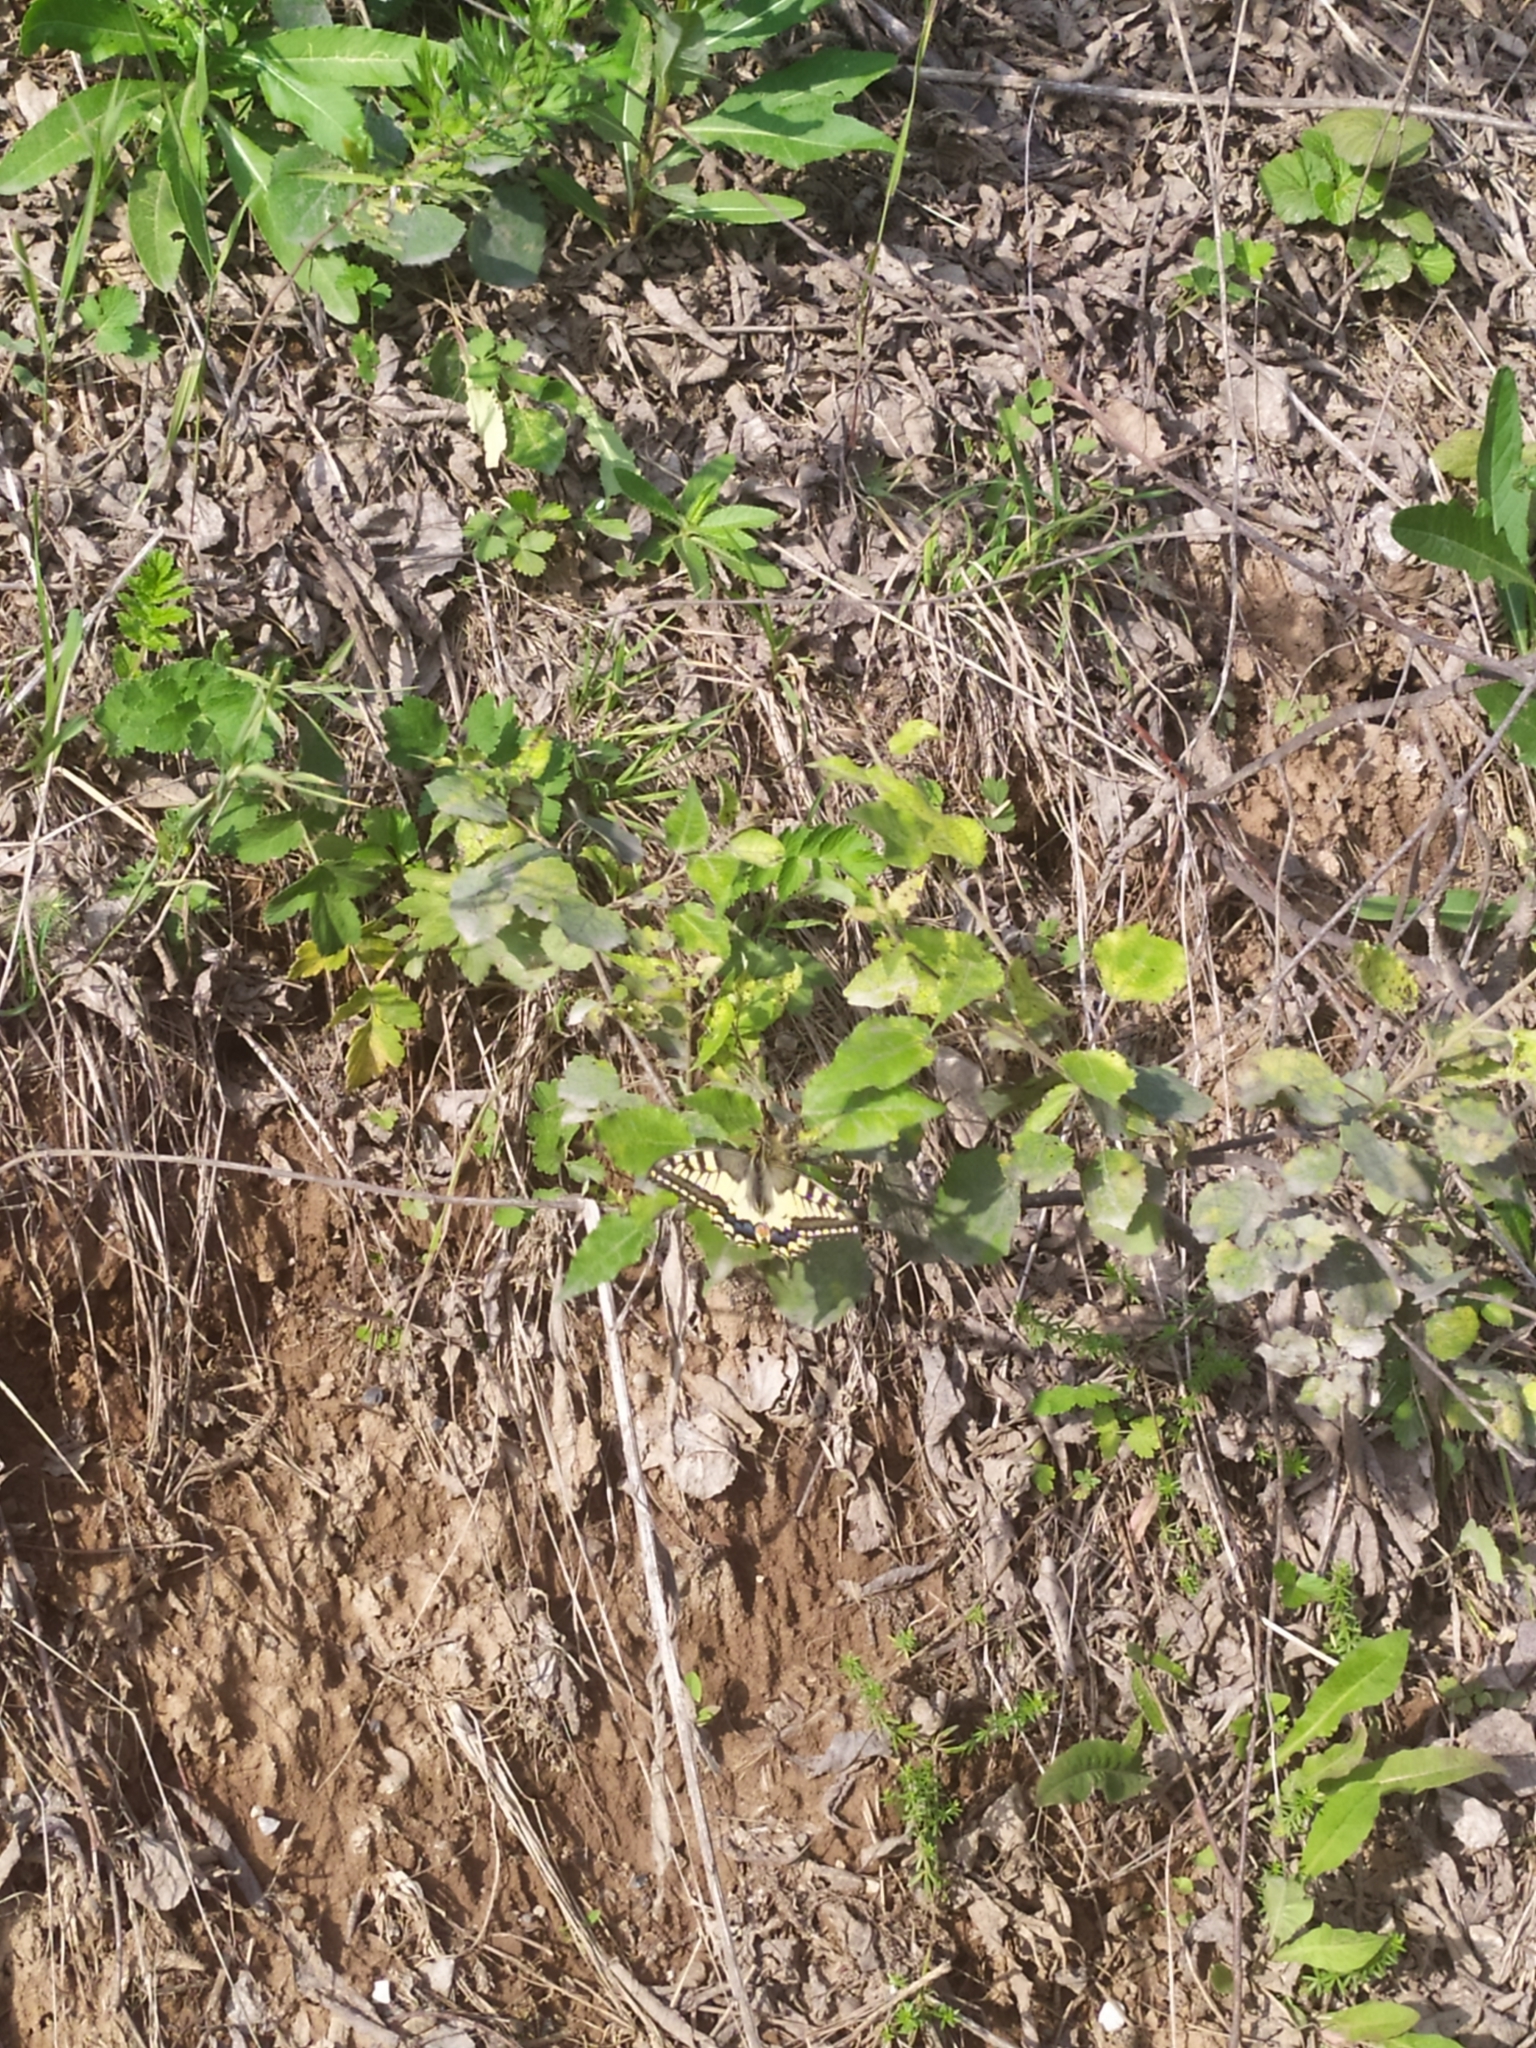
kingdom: Animalia
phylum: Arthropoda
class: Insecta
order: Lepidoptera
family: Papilionidae
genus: Papilio
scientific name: Papilio machaon
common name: Swallowtail
